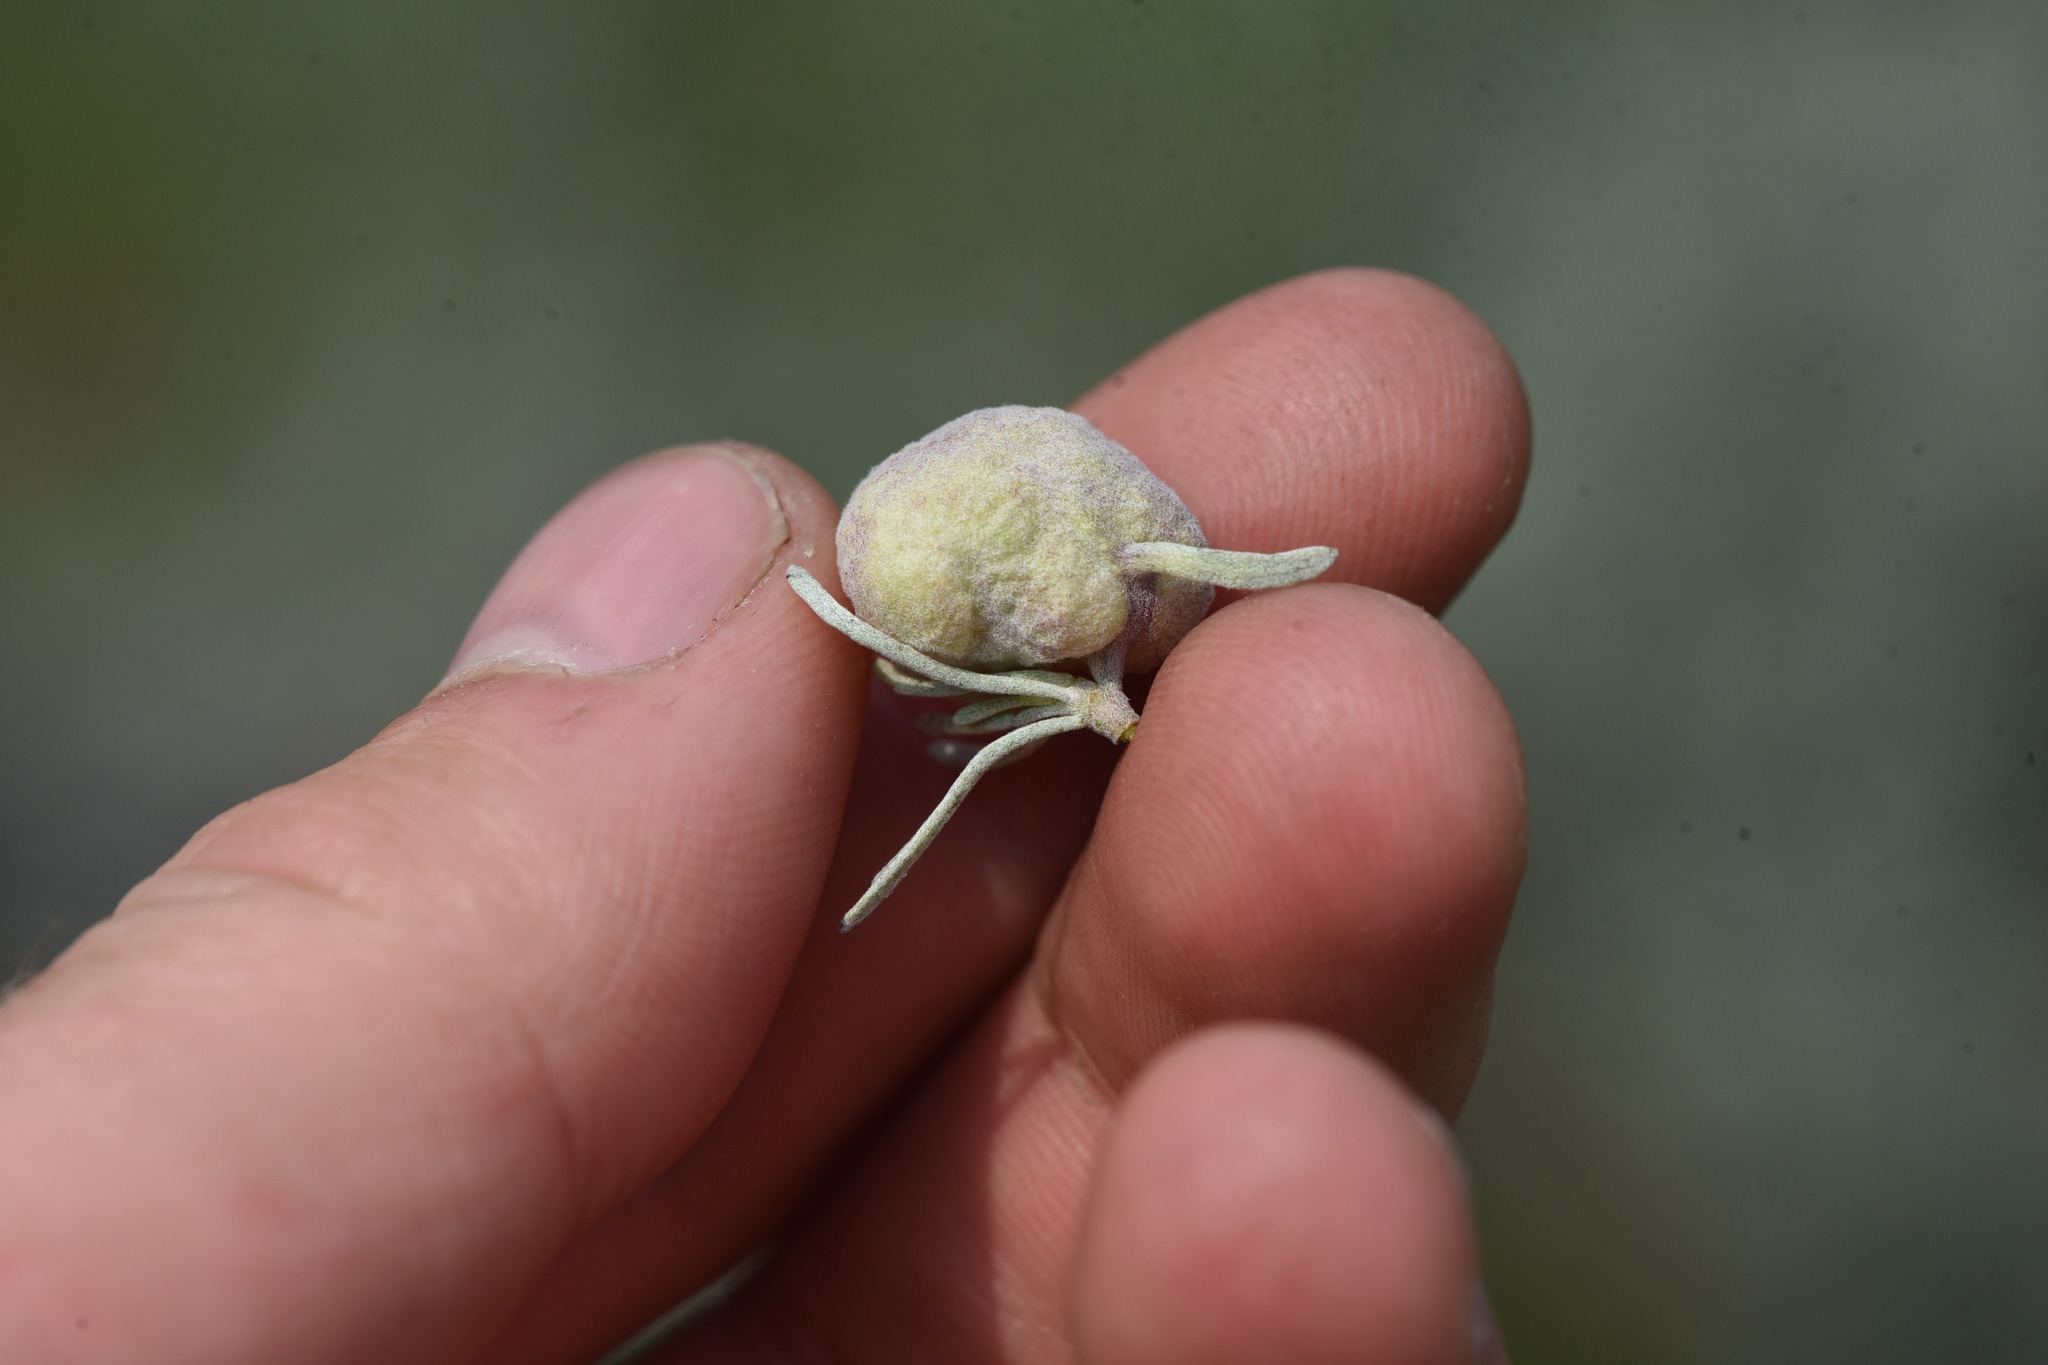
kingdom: Animalia
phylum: Arthropoda
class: Insecta
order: Diptera
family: Cecidomyiidae
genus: Rhopalomyia
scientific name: Rhopalomyia pomum
